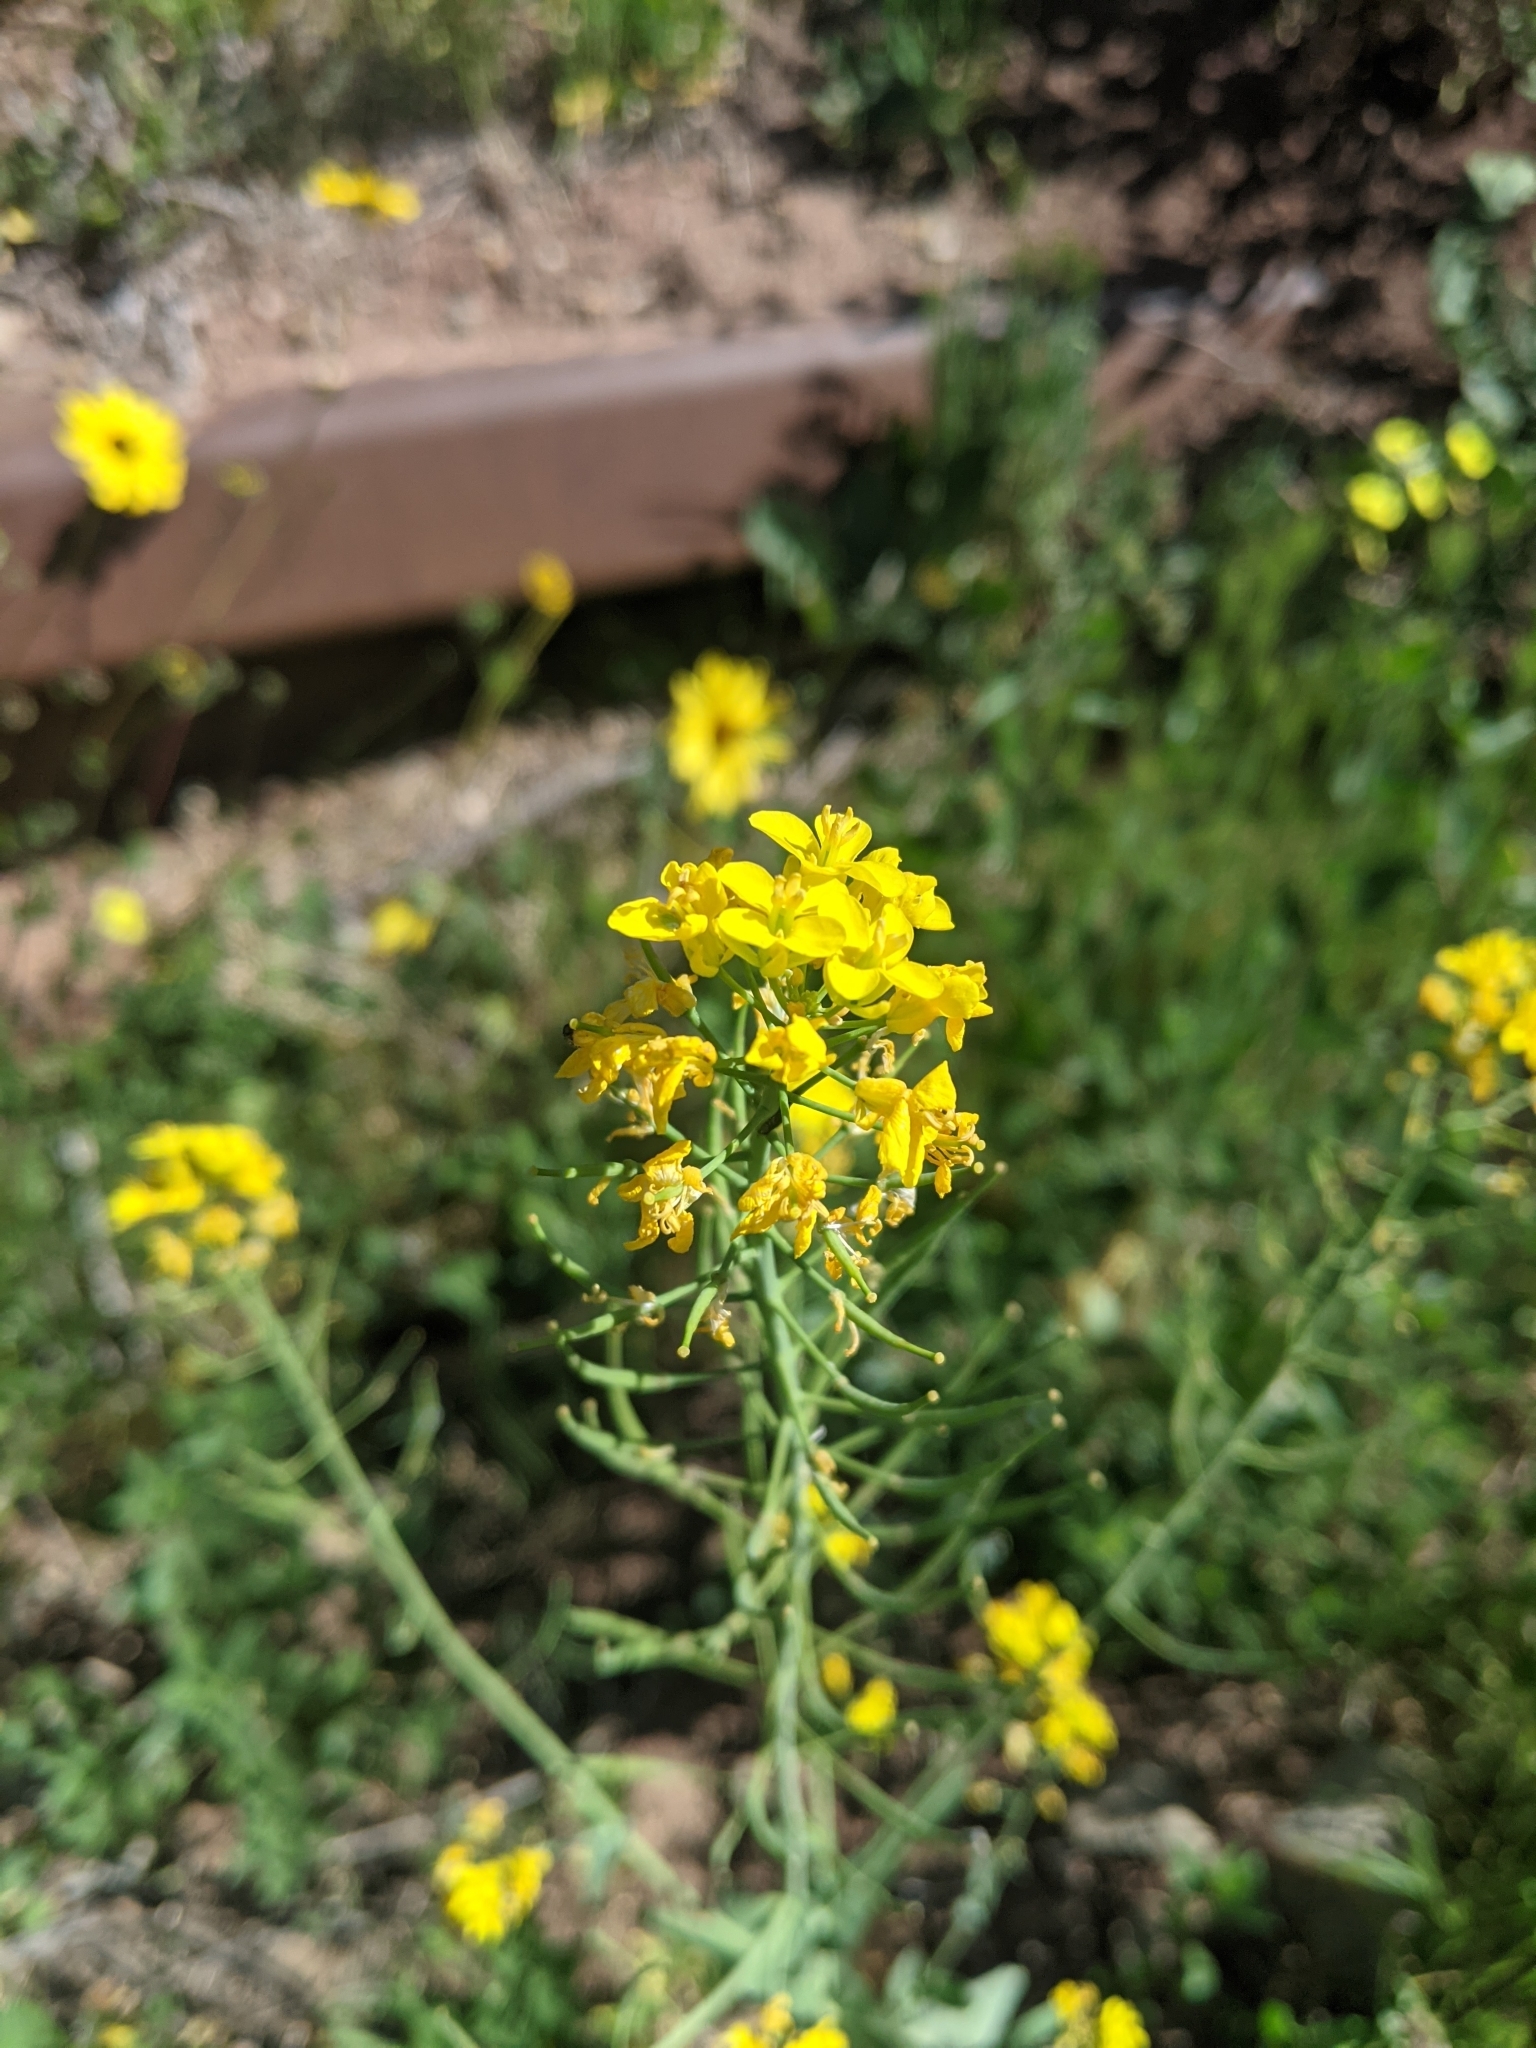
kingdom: Plantae
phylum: Tracheophyta
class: Magnoliopsida
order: Brassicales
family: Brassicaceae
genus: Brassica
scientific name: Brassica rapa
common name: Field mustard
